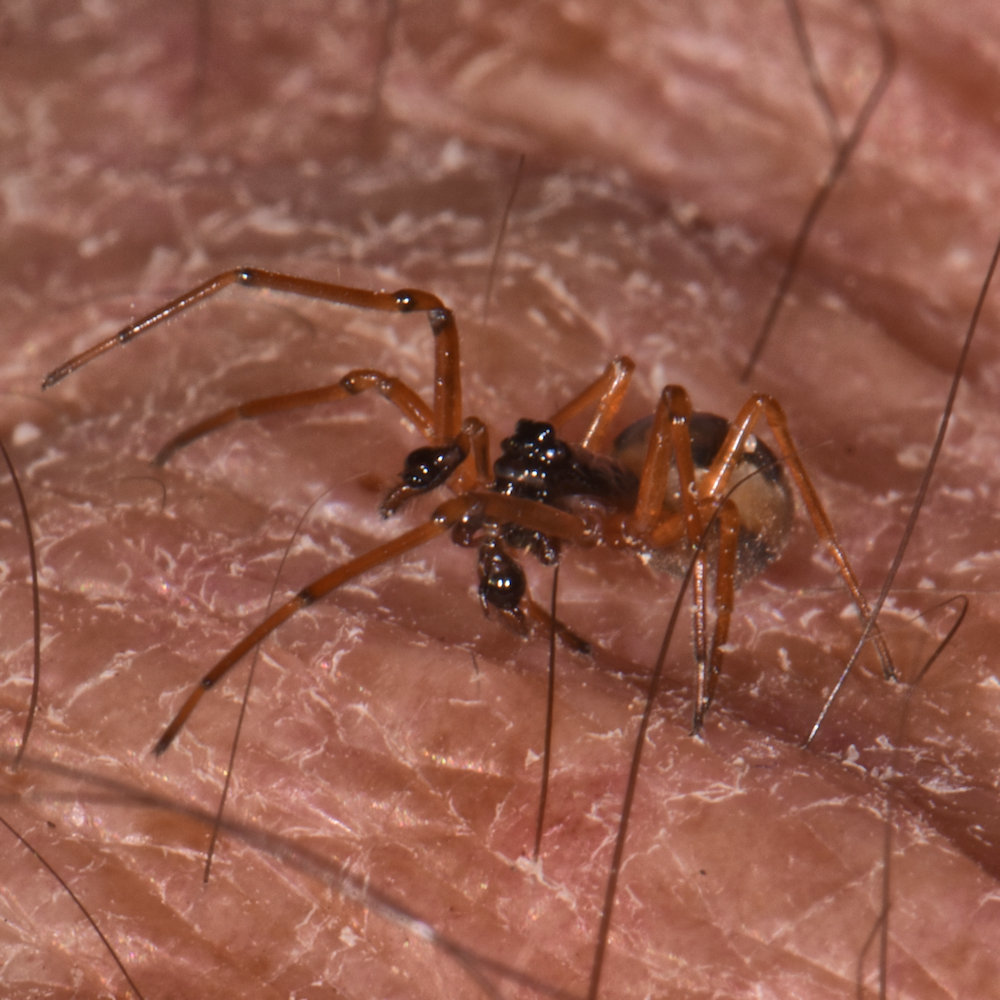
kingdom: Animalia
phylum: Arthropoda
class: Arachnida
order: Araneae
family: Tetragnathidae
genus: Pachygnatha
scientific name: Pachygnatha autumnalis
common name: Big-eyed thick-jawed spider
